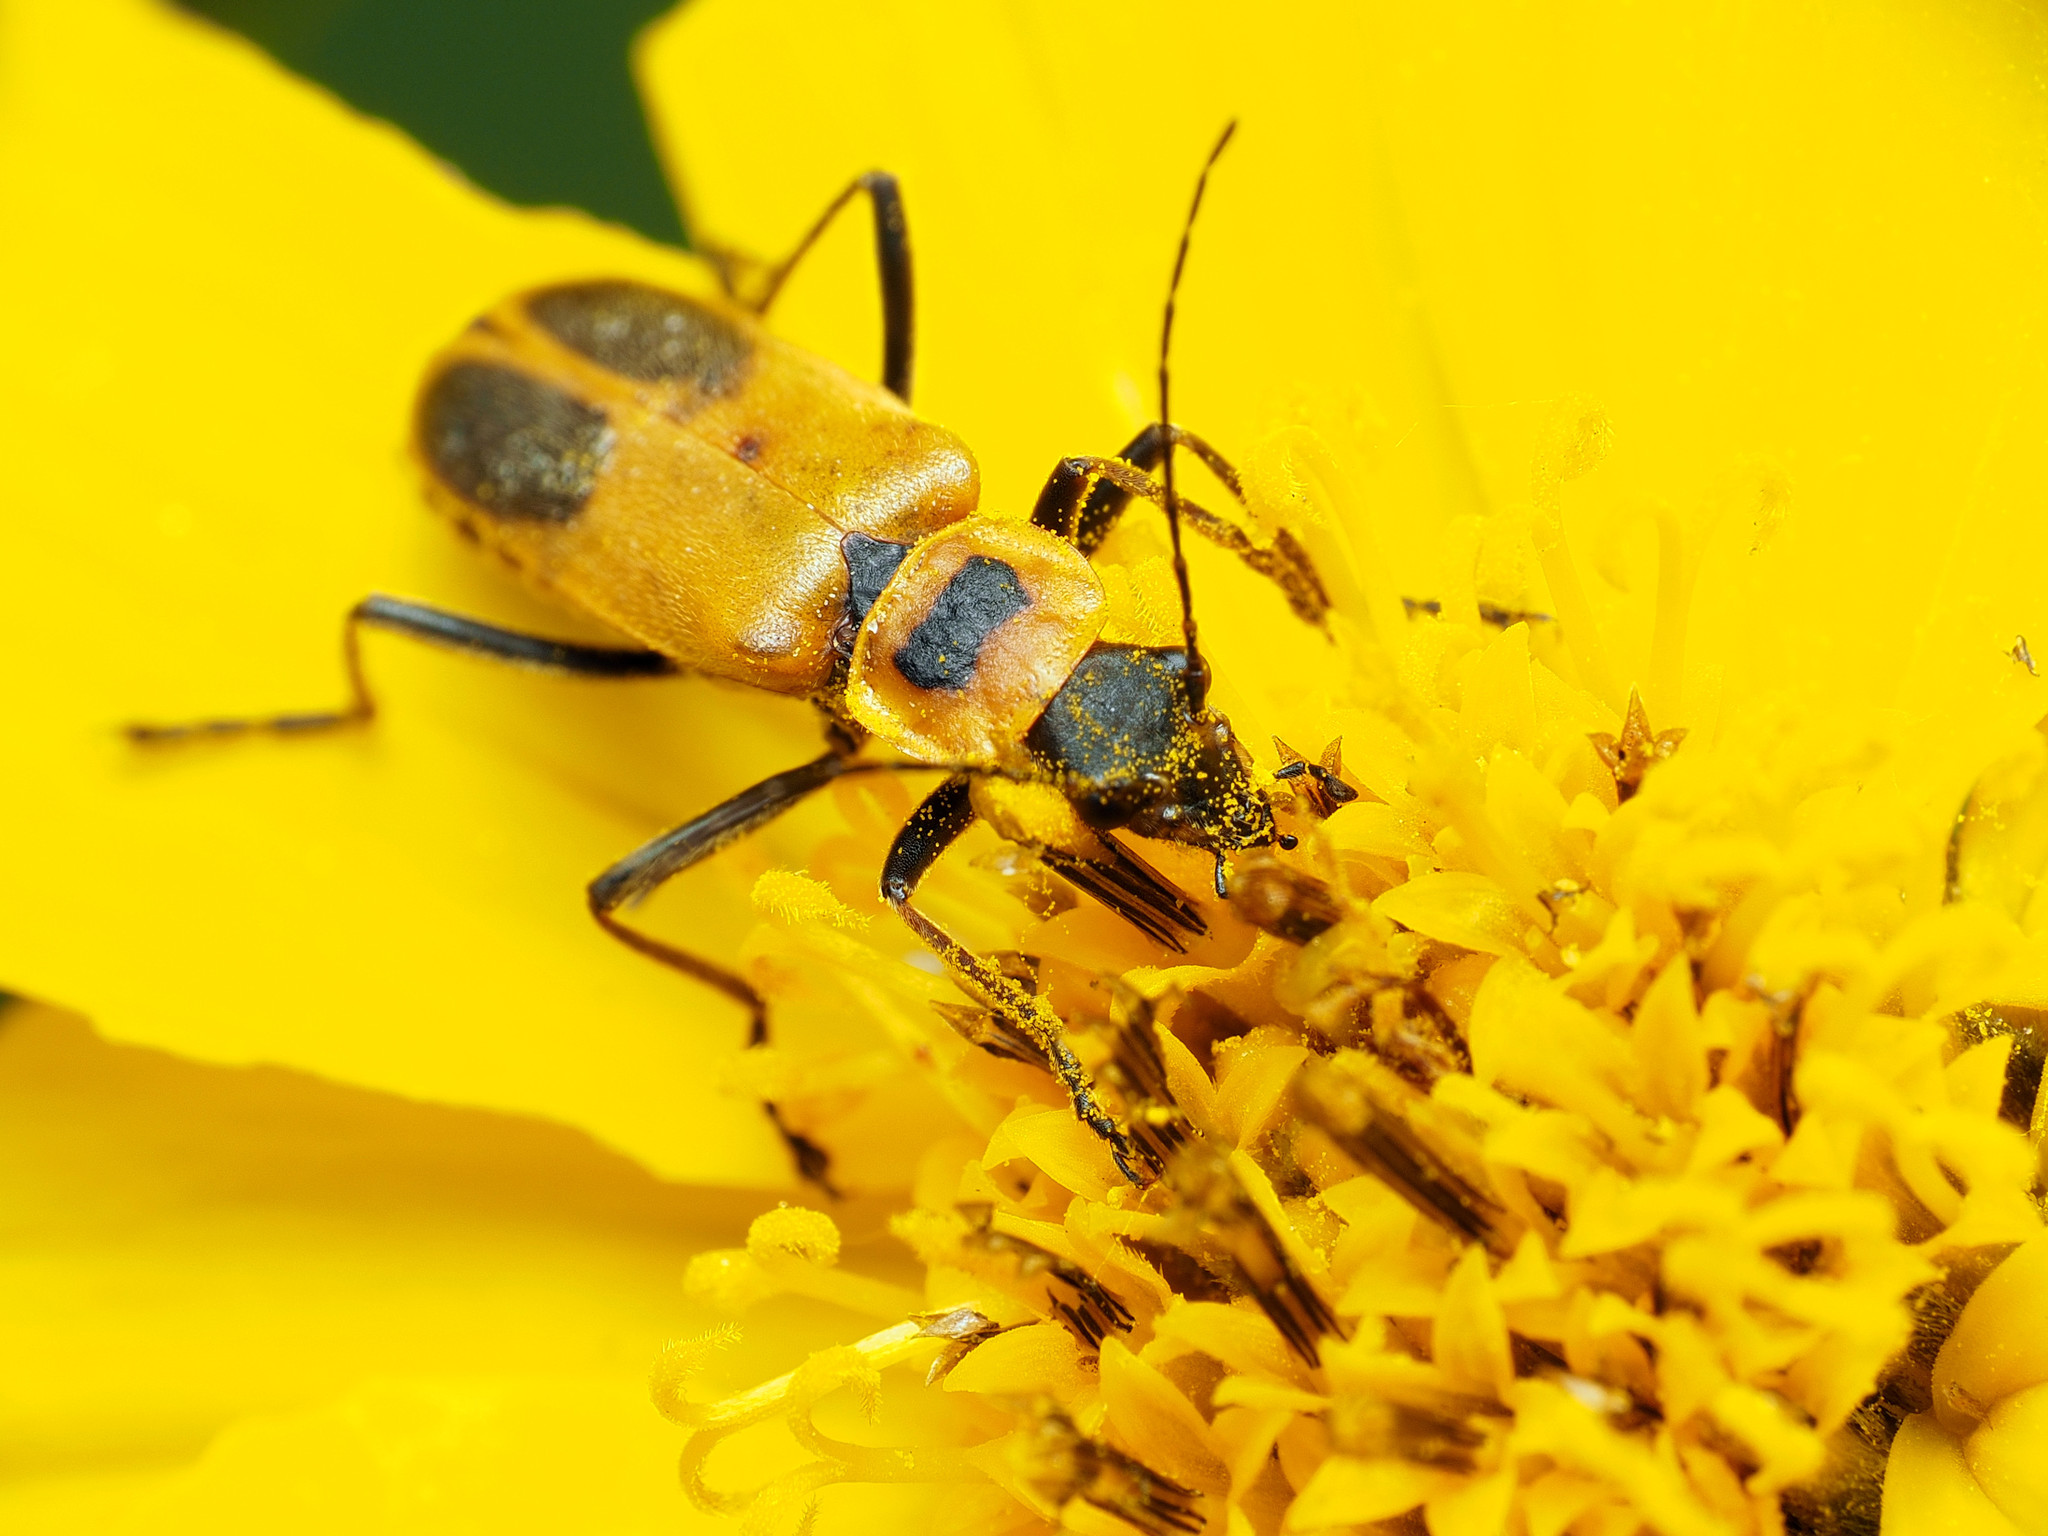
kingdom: Animalia
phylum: Arthropoda
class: Insecta
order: Coleoptera
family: Cantharidae
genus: Chauliognathus
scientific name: Chauliognathus pensylvanicus
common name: Goldenrod soldier beetle
